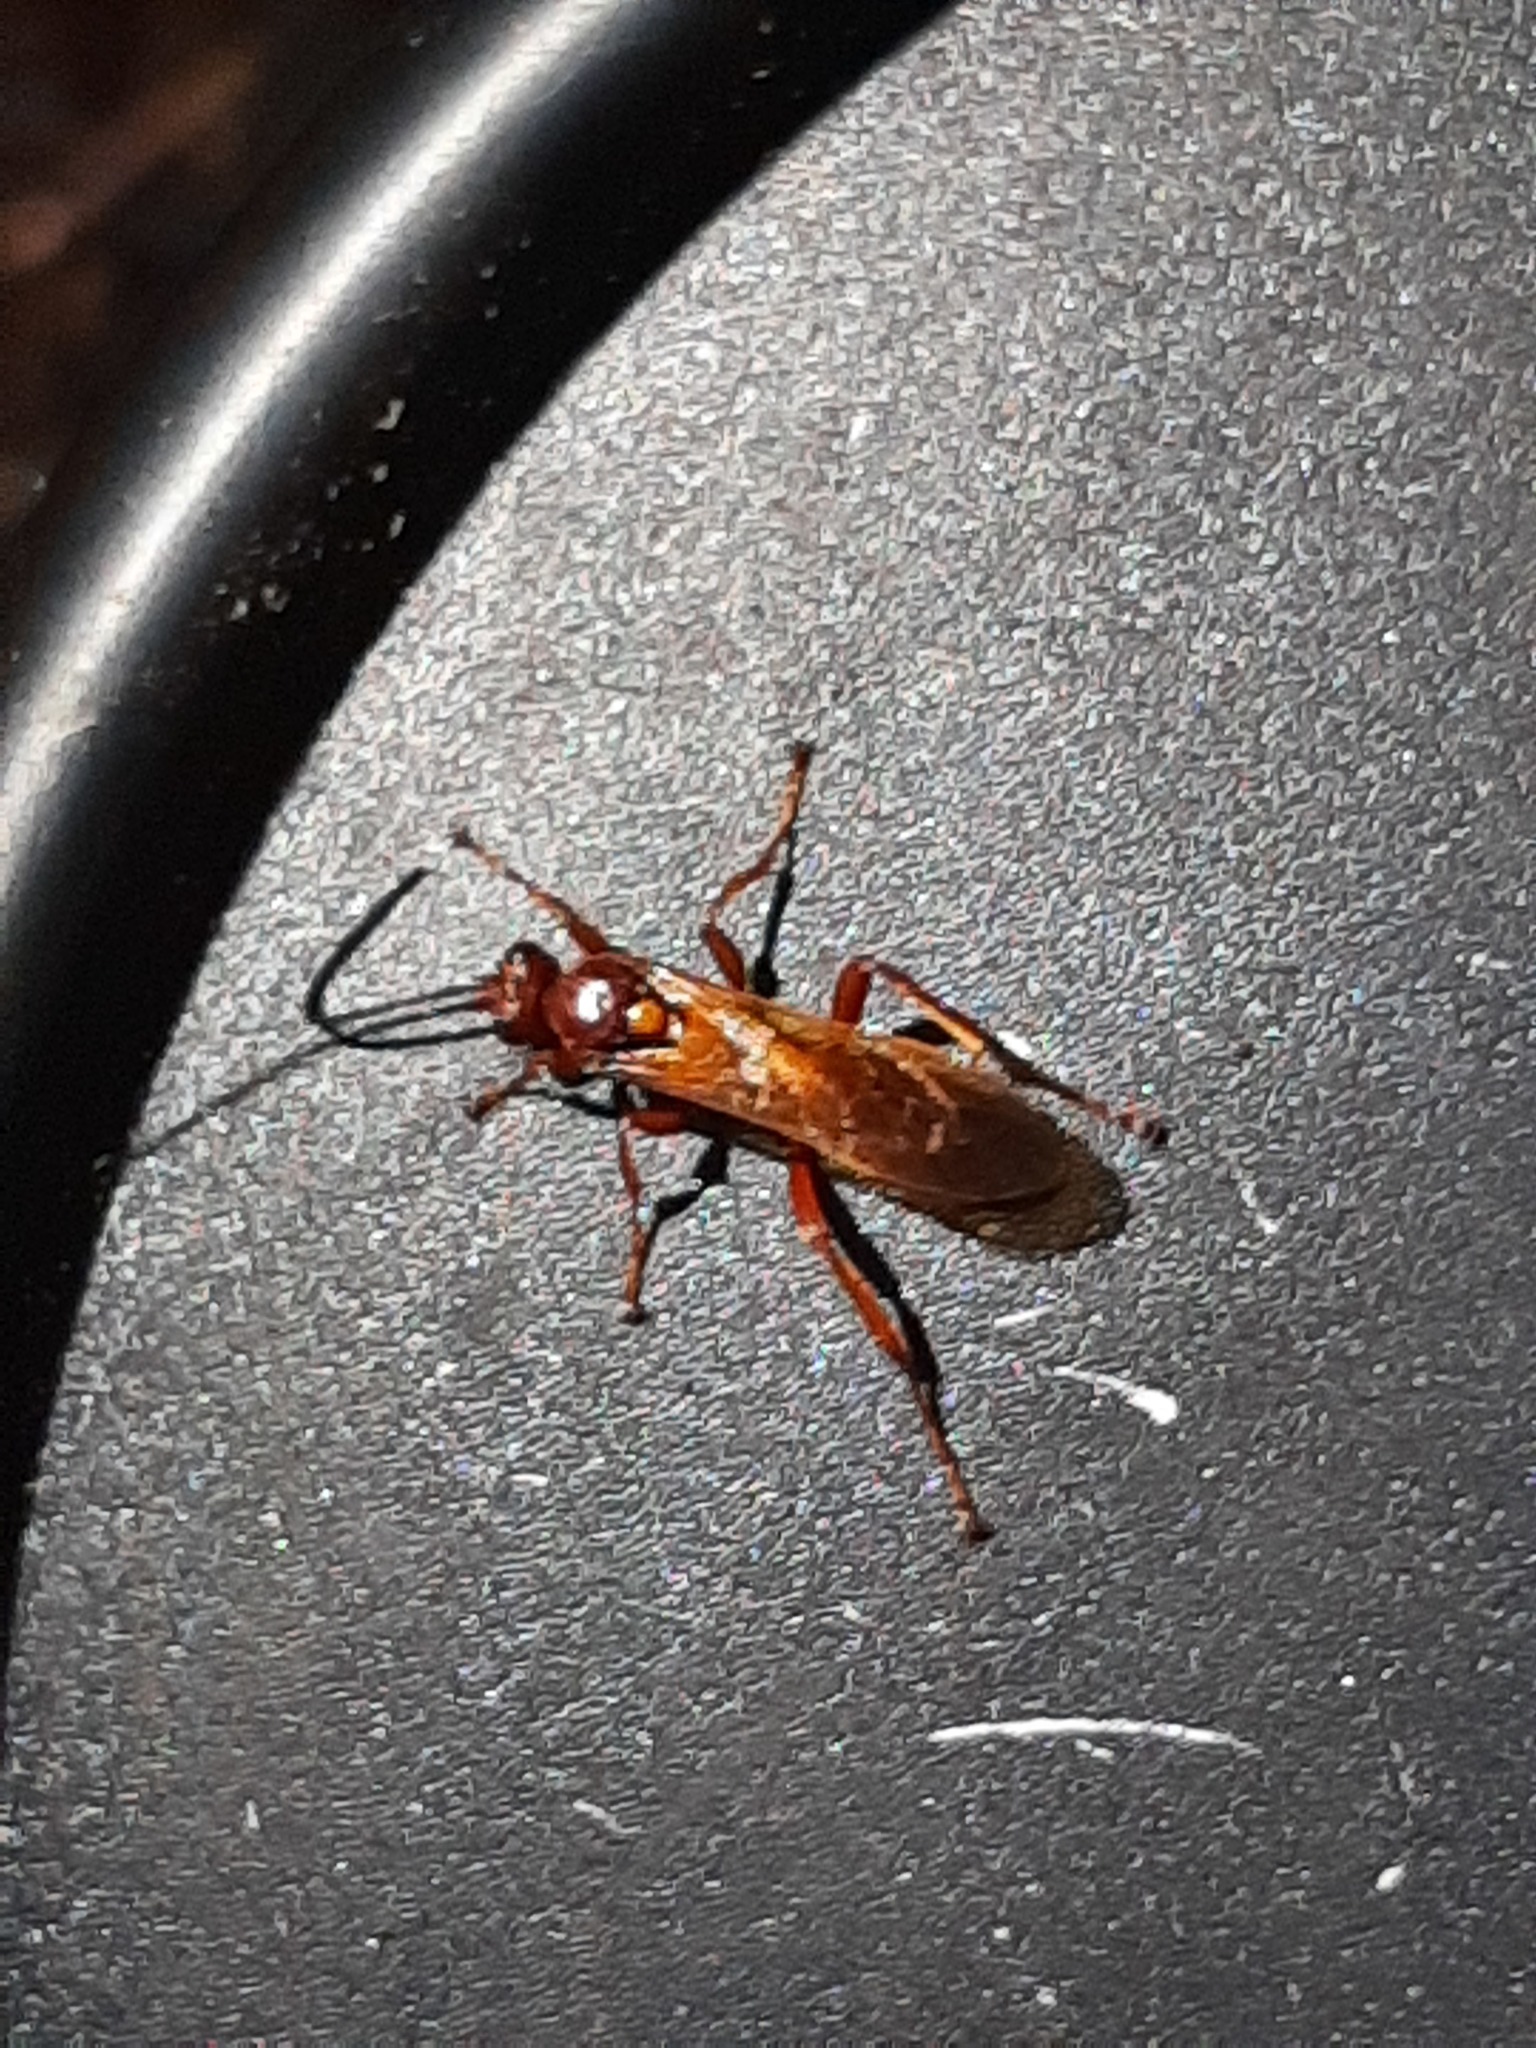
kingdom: Animalia
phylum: Arthropoda
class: Insecta
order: Hymenoptera
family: Ichneumonidae
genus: Degithina
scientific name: Degithina davidi
